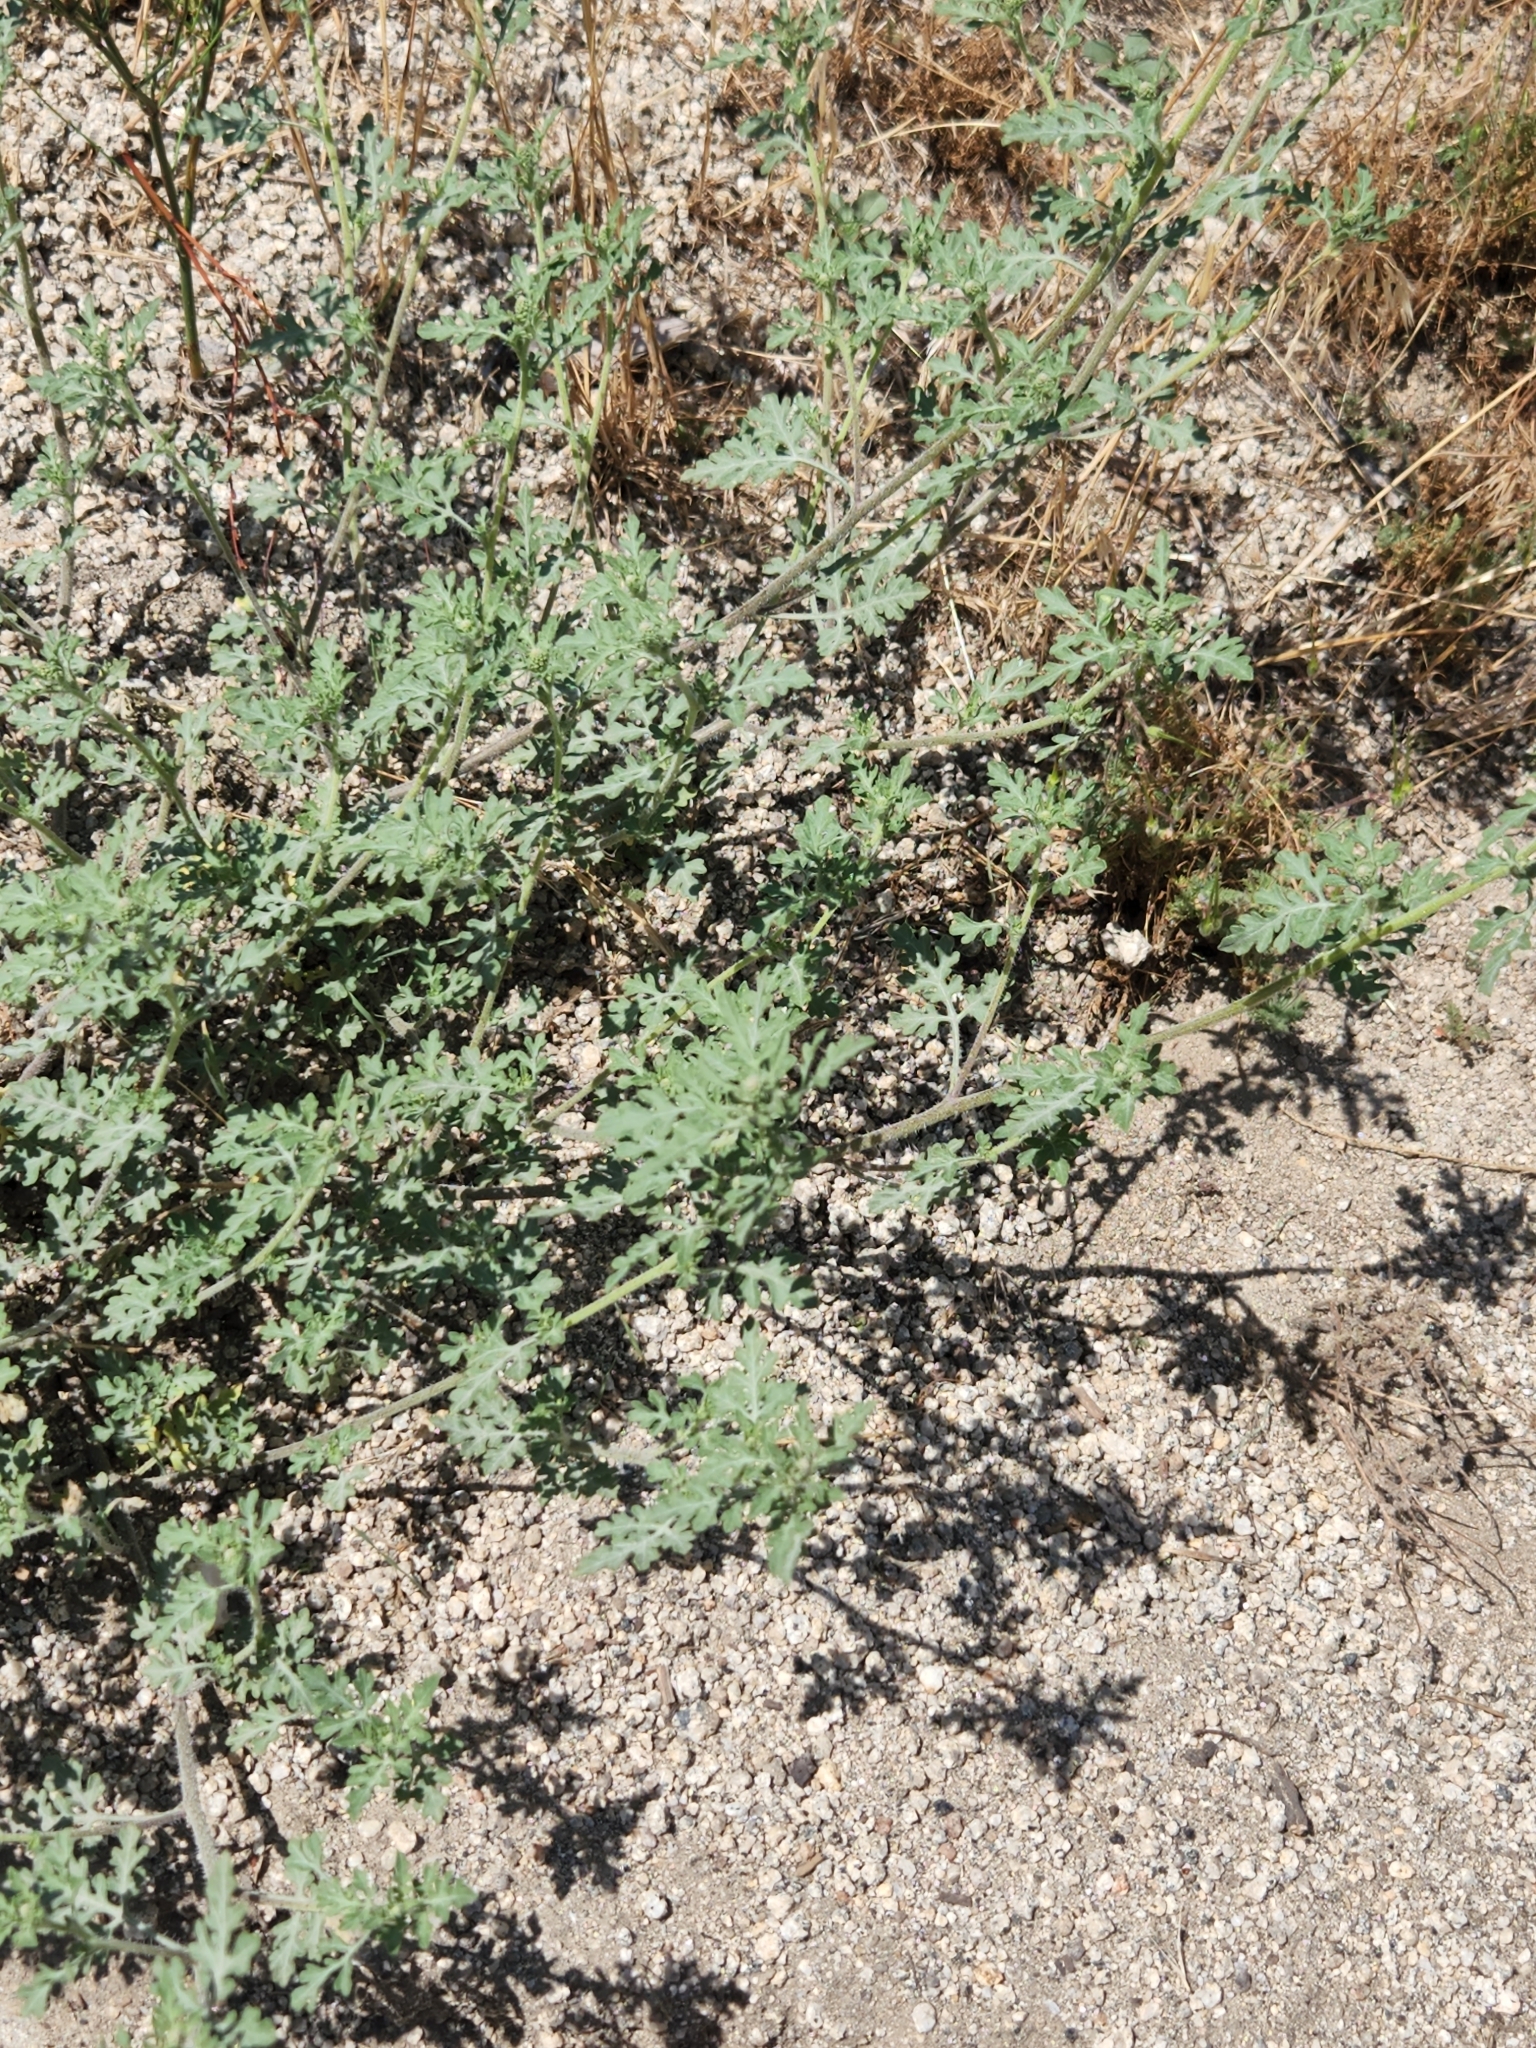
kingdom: Plantae
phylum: Tracheophyta
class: Magnoliopsida
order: Asterales
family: Asteraceae
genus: Ambrosia
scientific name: Ambrosia acanthicarpa
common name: Hooker's bur ragweed
